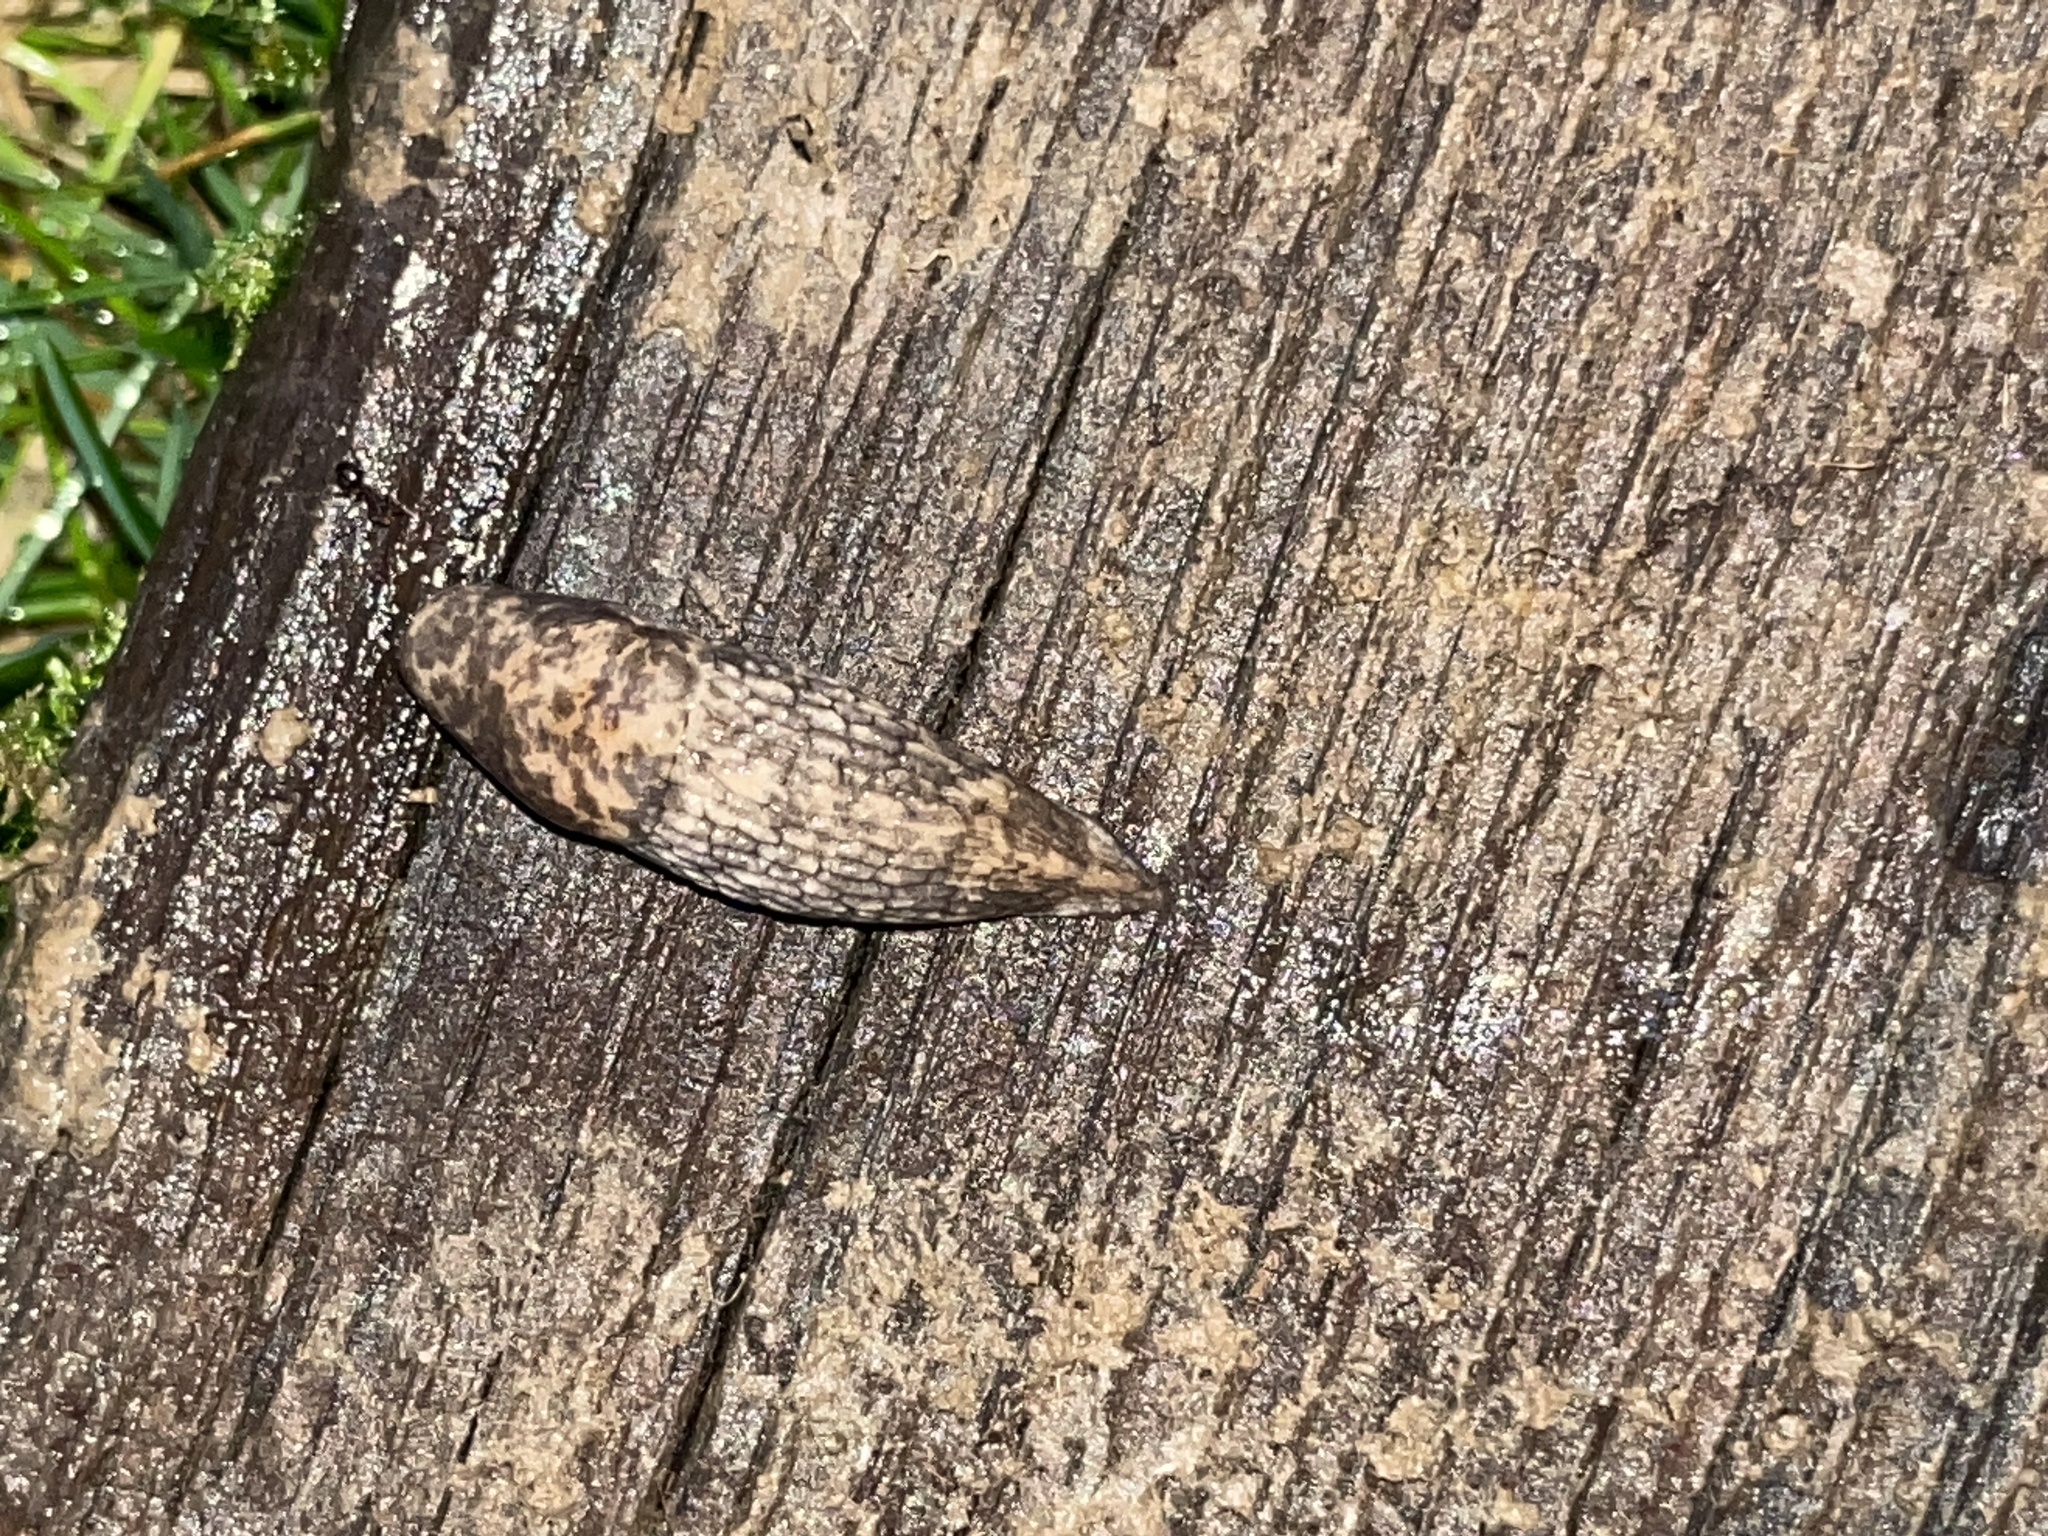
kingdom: Animalia
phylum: Mollusca
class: Gastropoda
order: Stylommatophora
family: Agriolimacidae
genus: Deroceras
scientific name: Deroceras reticulatum
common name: Gray field slug
